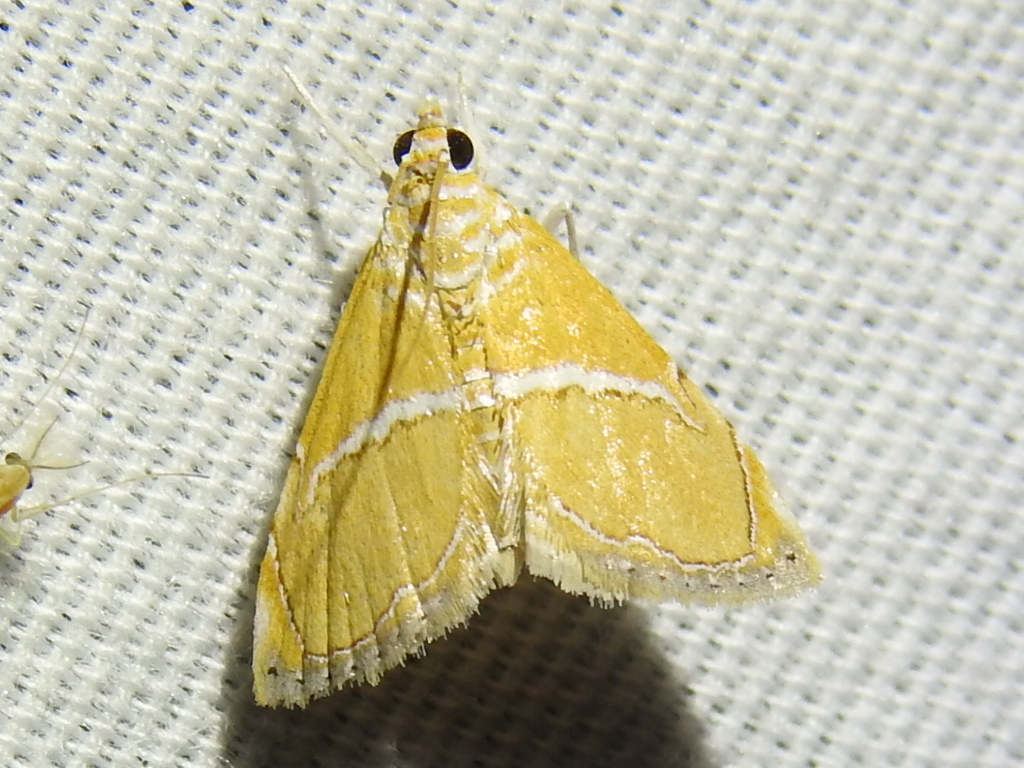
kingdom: Animalia
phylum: Arthropoda
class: Insecta
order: Lepidoptera
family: Crambidae
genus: Abegesta
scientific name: Abegesta remellalis
